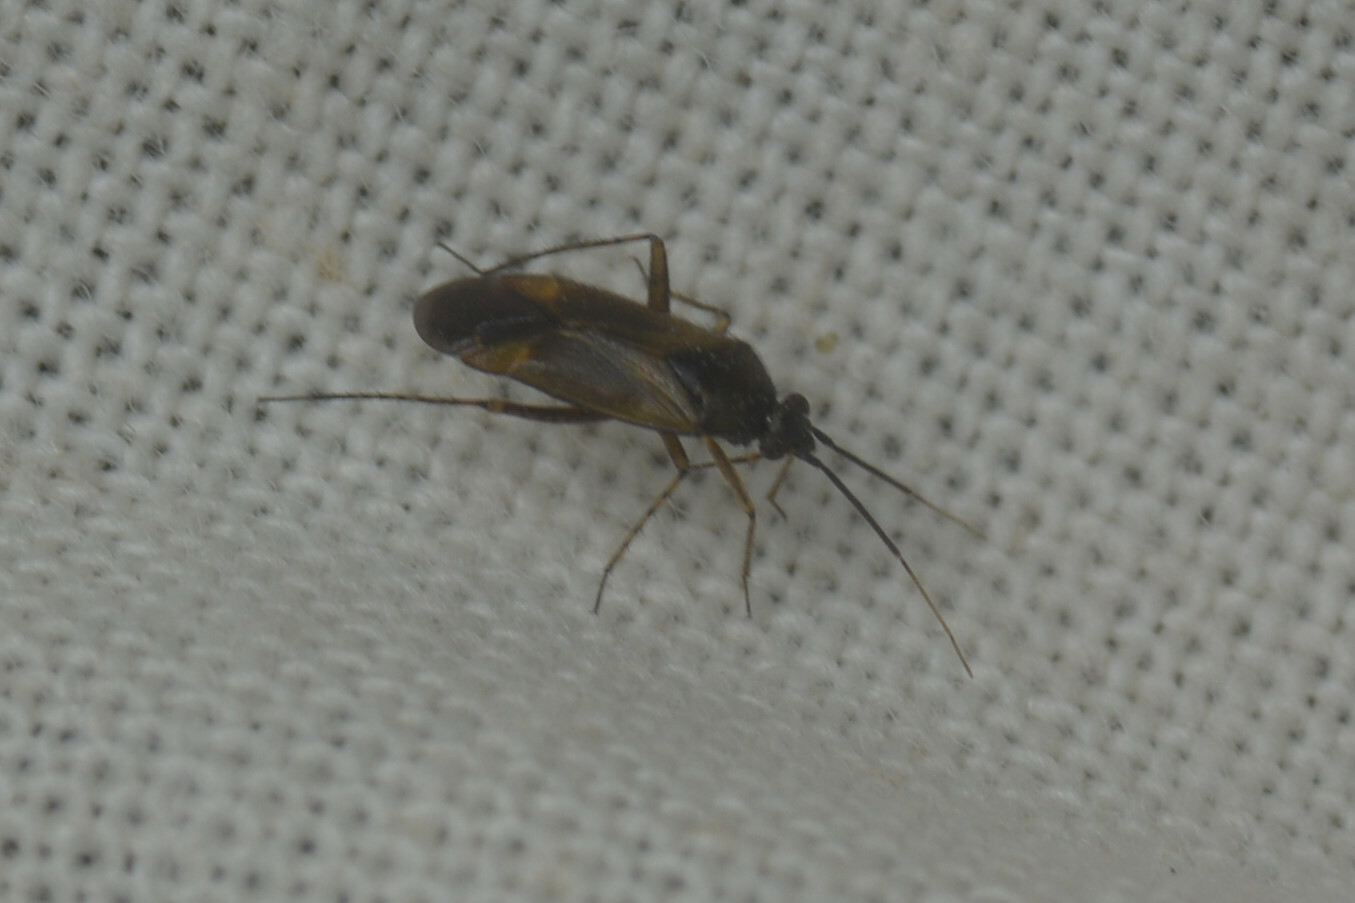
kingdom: Animalia
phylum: Arthropoda
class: Insecta
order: Hemiptera
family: Miridae
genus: Plagiognathus
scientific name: Plagiognathus arbustorum
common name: Plant bug
